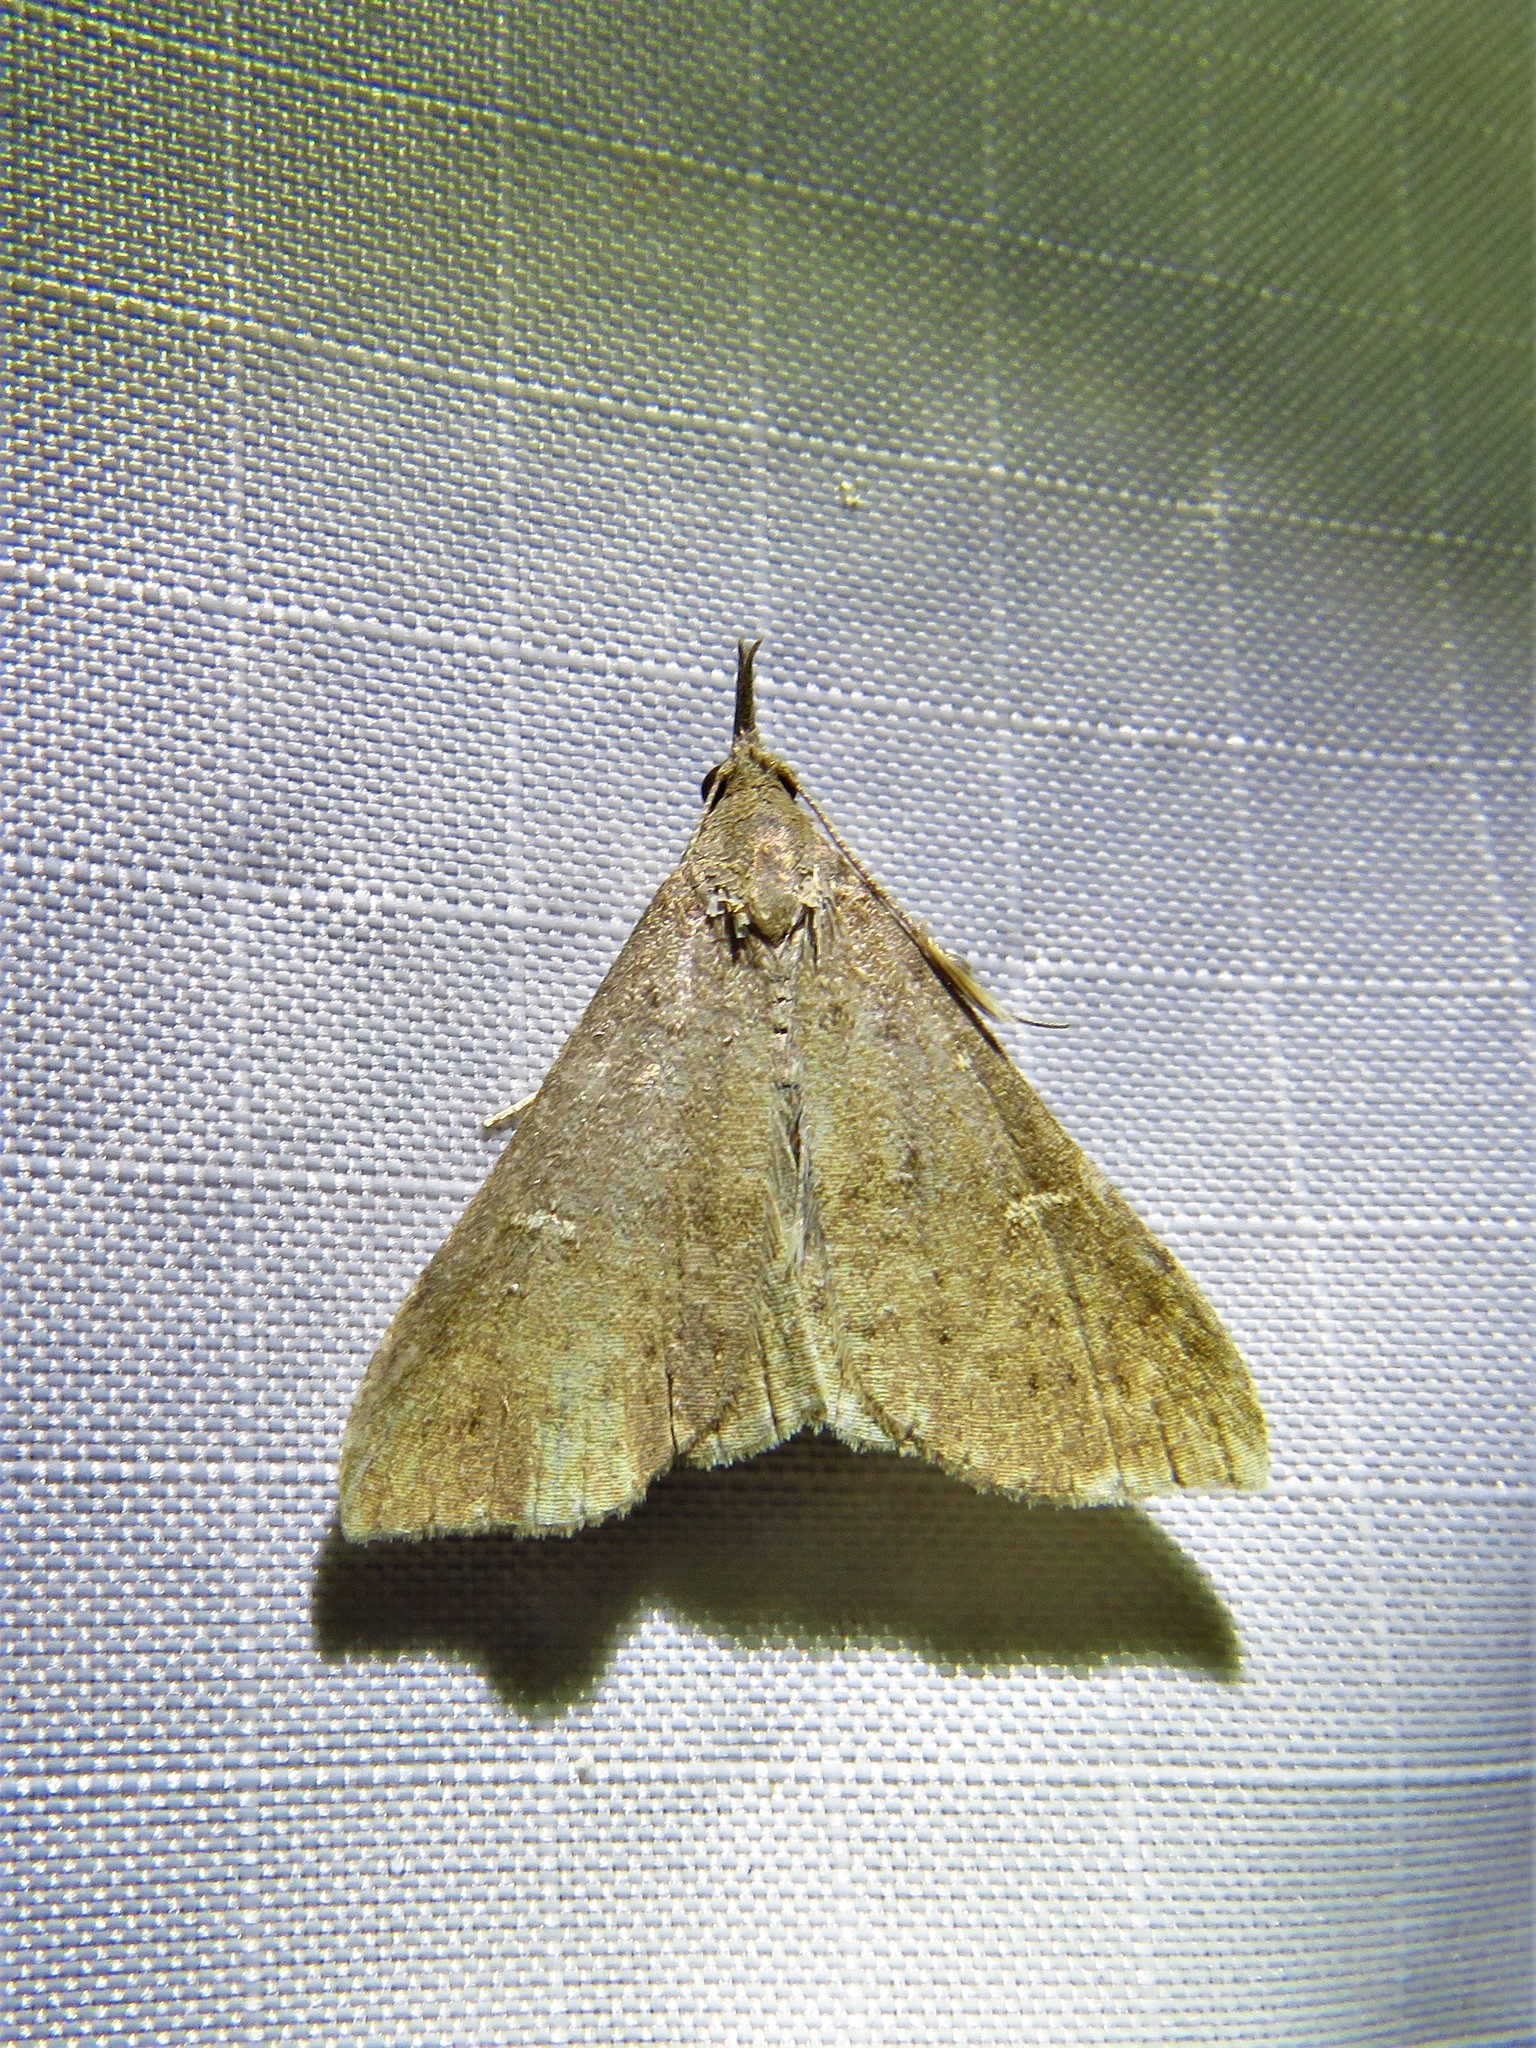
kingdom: Animalia
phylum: Arthropoda
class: Insecta
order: Lepidoptera
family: Erebidae
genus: Bleptina
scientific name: Bleptina caradrinalis
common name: Bent-winged owlet
